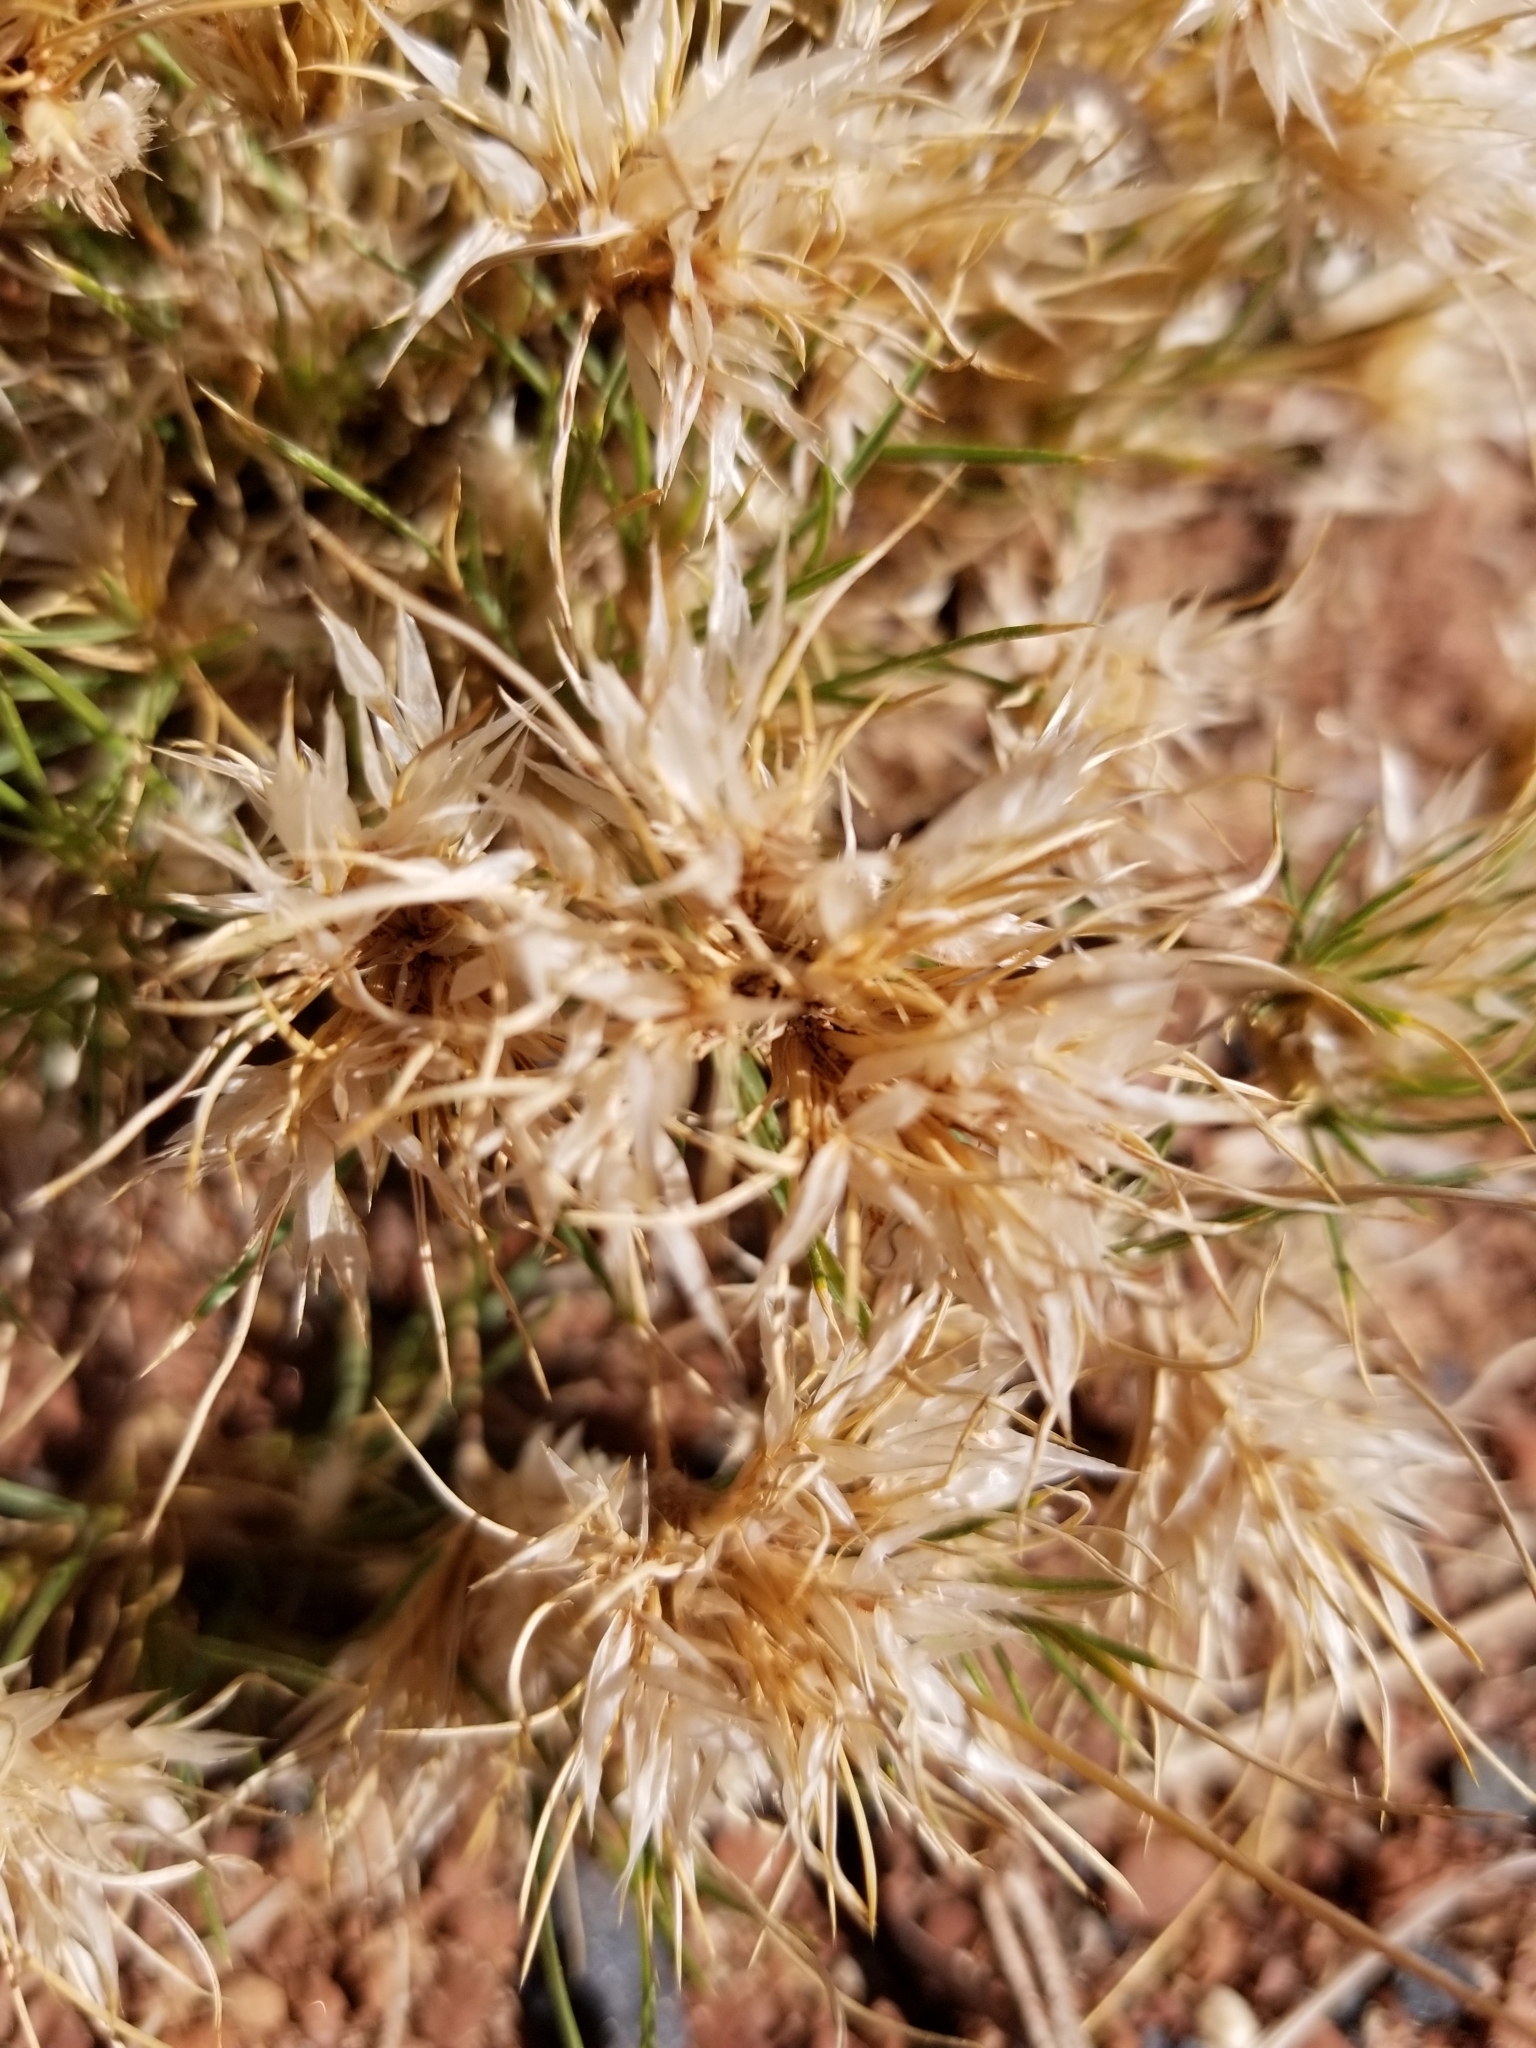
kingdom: Plantae
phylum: Tracheophyta
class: Liliopsida
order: Poales
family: Poaceae
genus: Dasyochloa
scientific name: Dasyochloa pulchella
